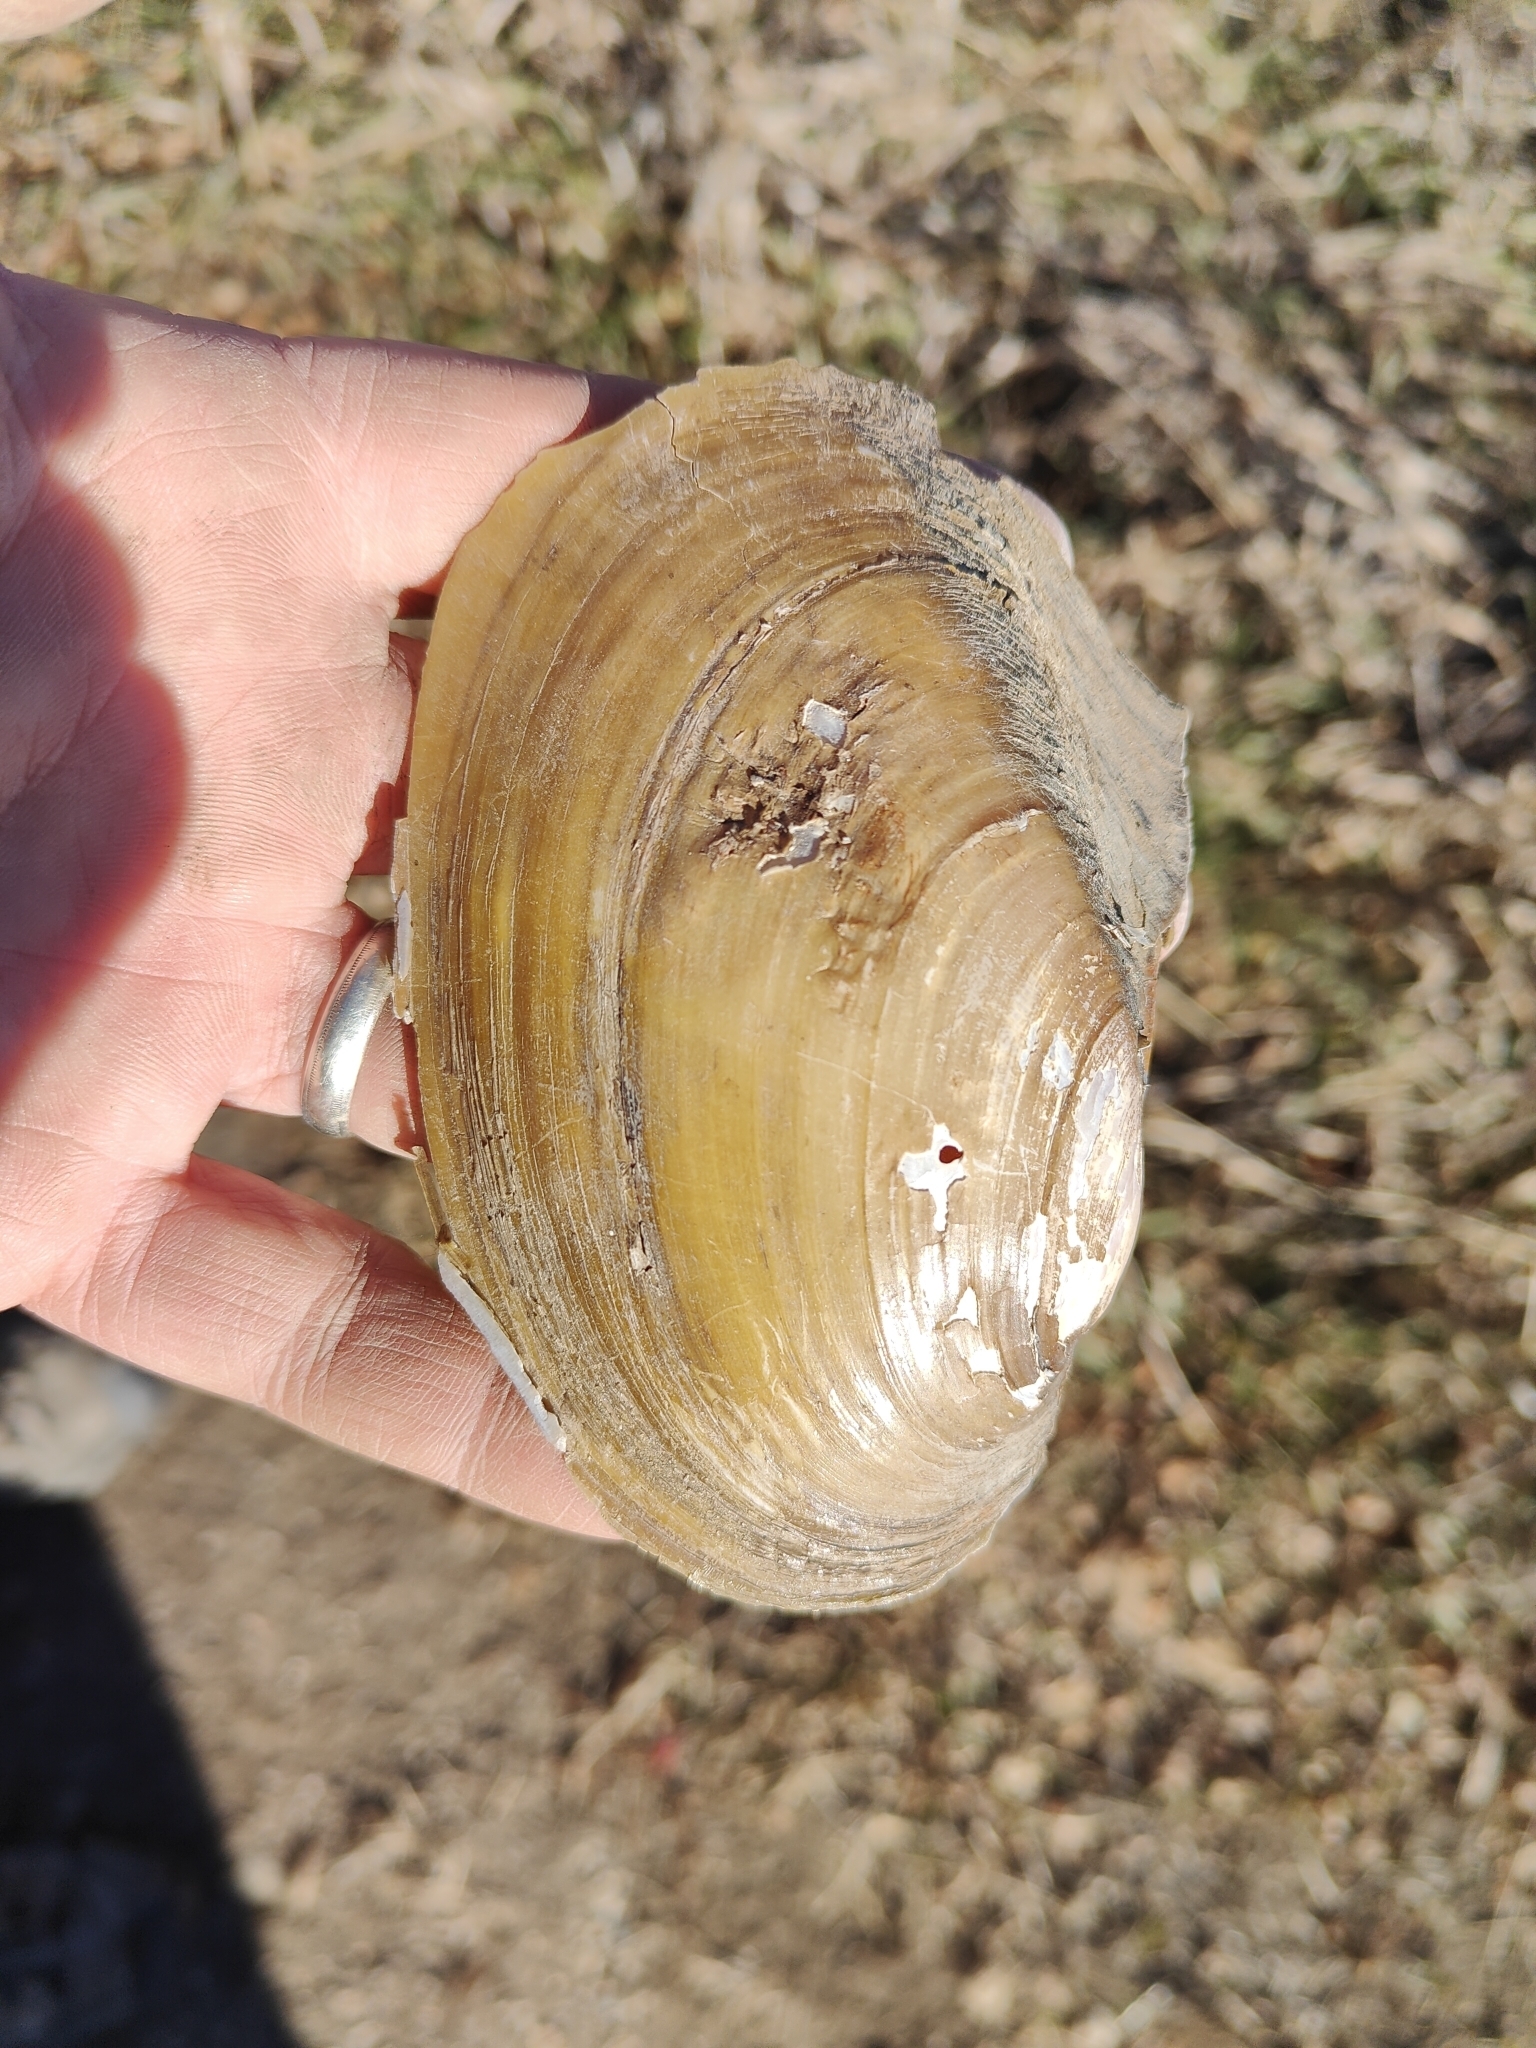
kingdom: Animalia
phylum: Mollusca
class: Bivalvia
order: Unionida
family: Unionidae
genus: Potamilus
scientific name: Potamilus fragilis
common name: Fragile papershell
